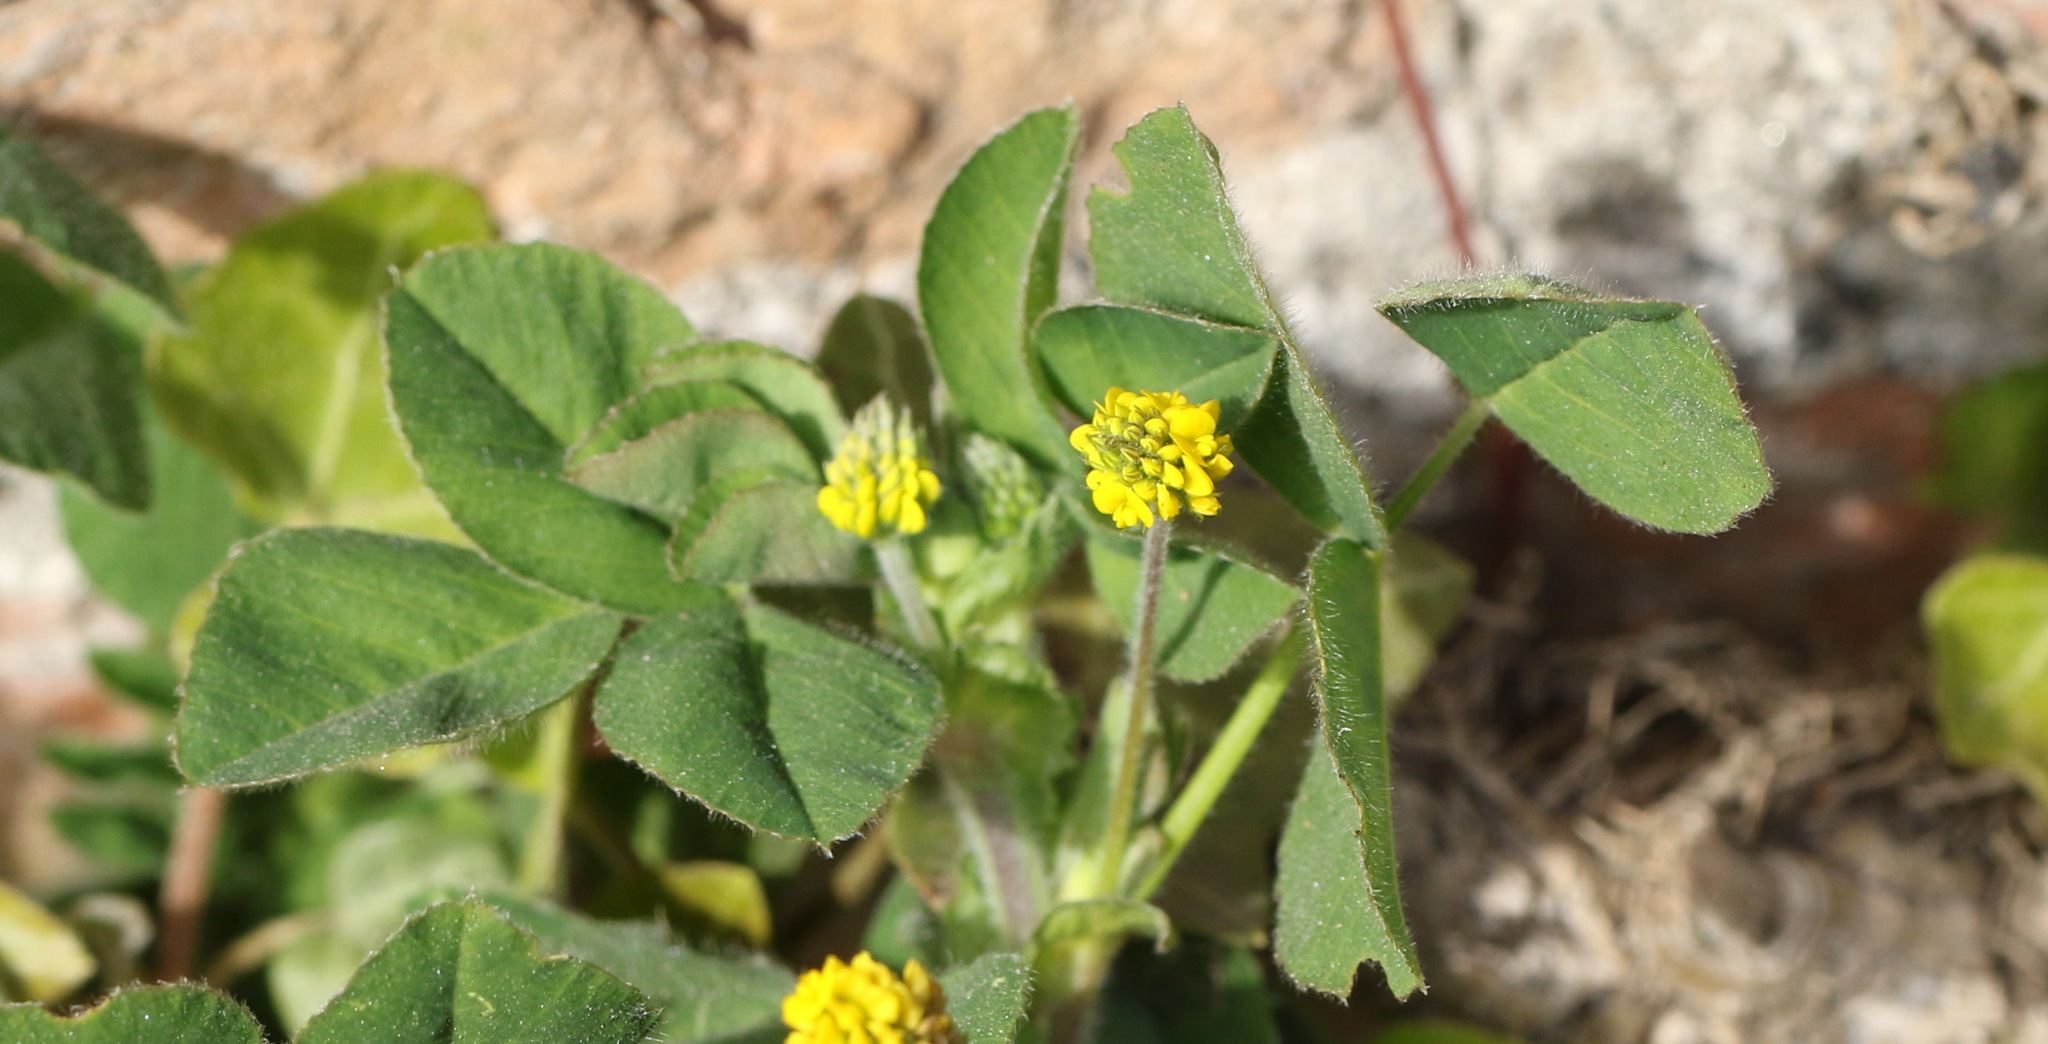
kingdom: Plantae
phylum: Tracheophyta
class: Magnoliopsida
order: Fabales
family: Fabaceae
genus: Medicago
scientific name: Medicago lupulina
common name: Black medick
